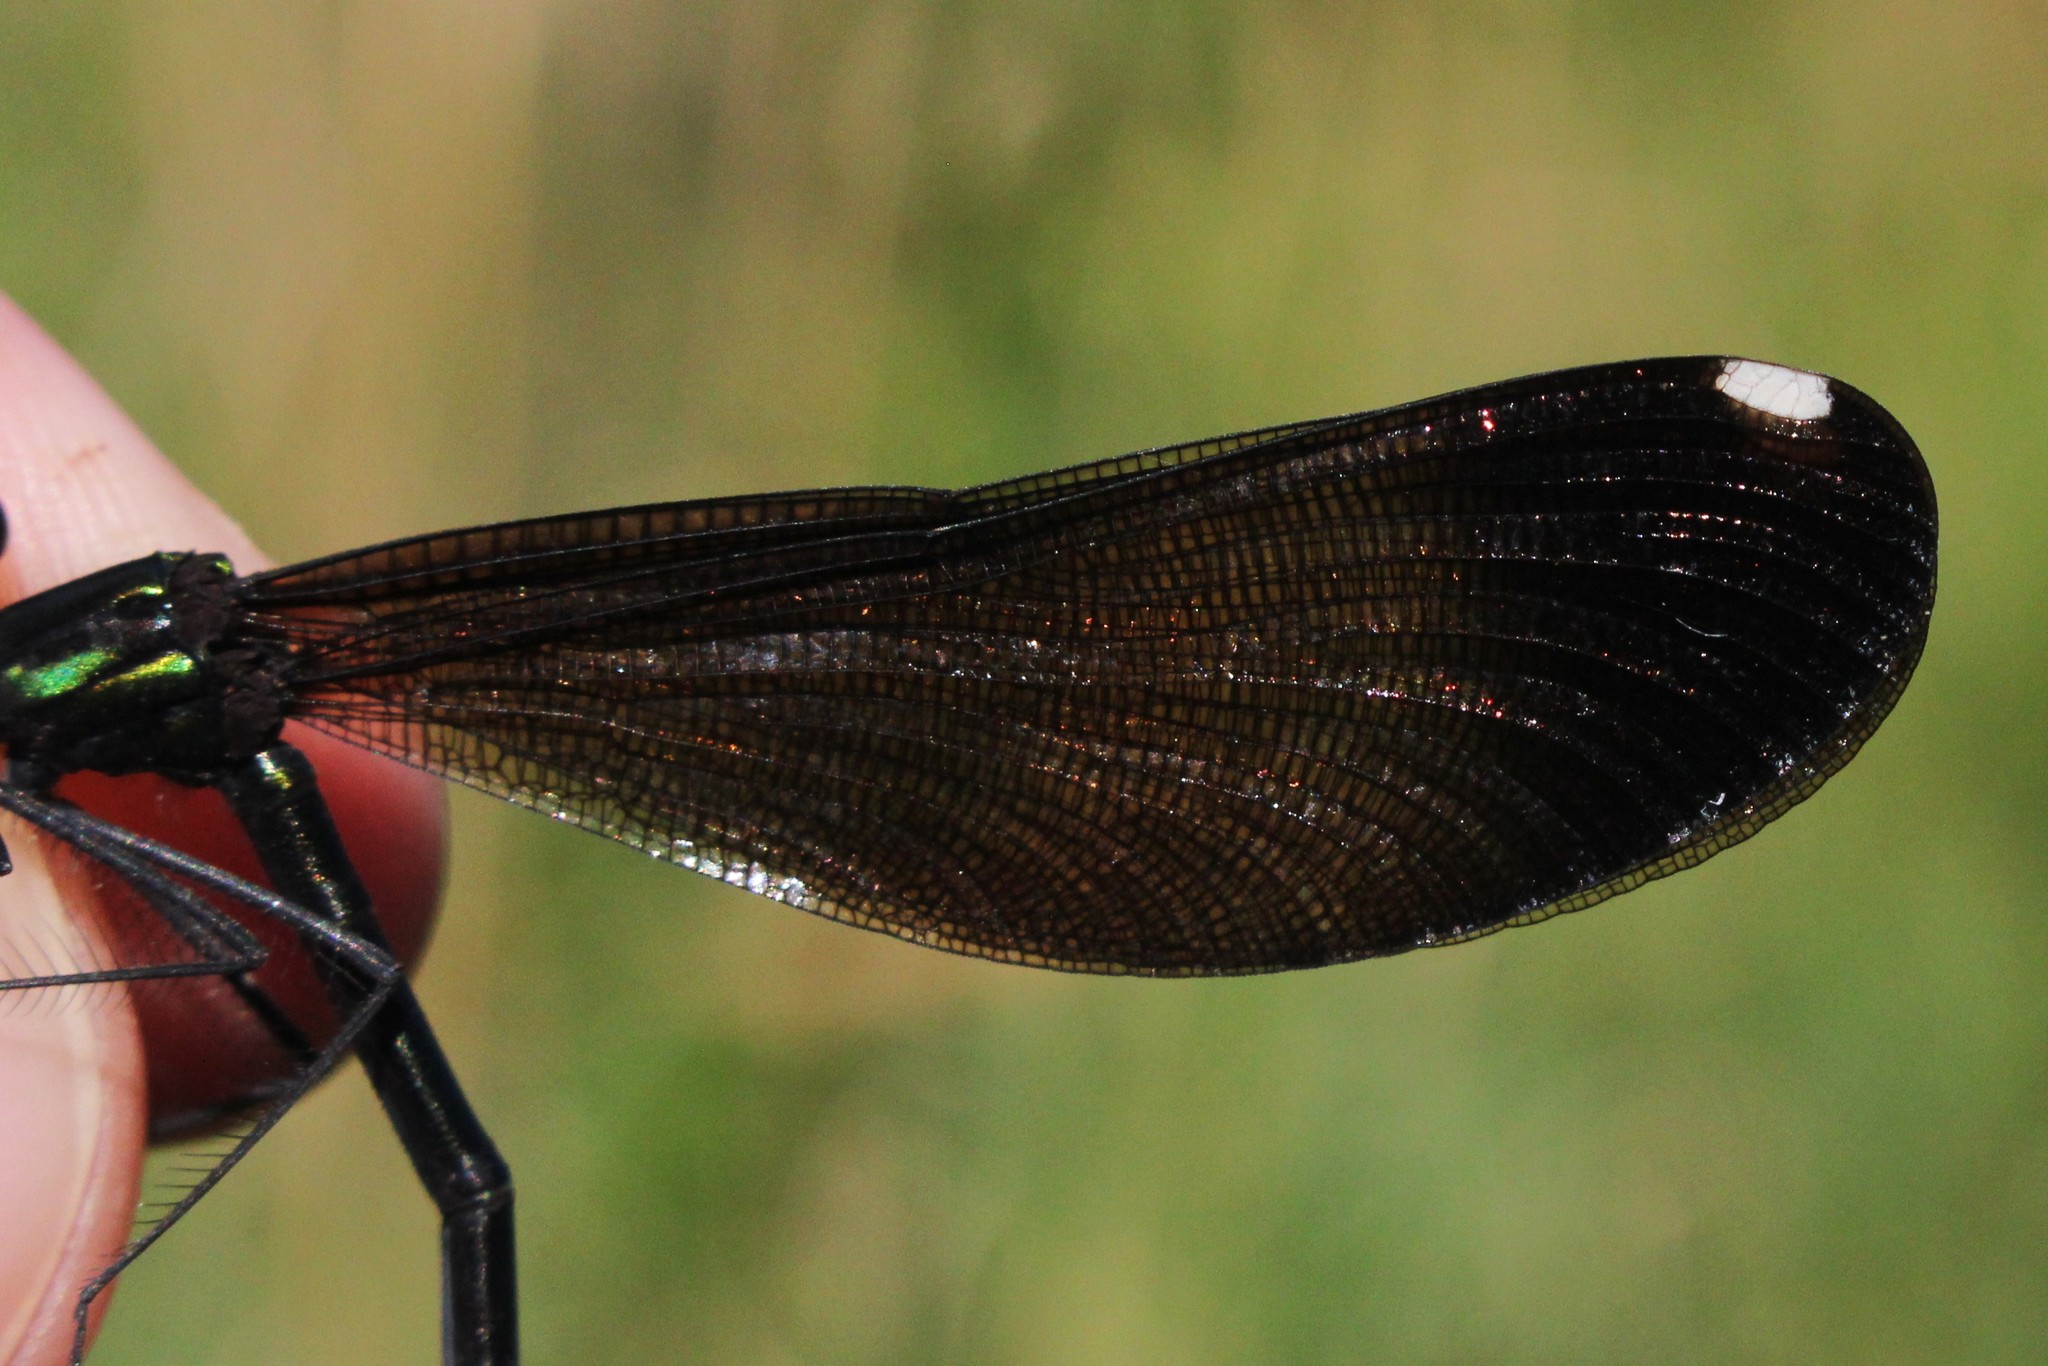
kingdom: Animalia
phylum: Arthropoda
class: Insecta
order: Odonata
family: Calopterygidae
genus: Calopteryx
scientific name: Calopteryx maculata
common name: Ebony jewelwing
